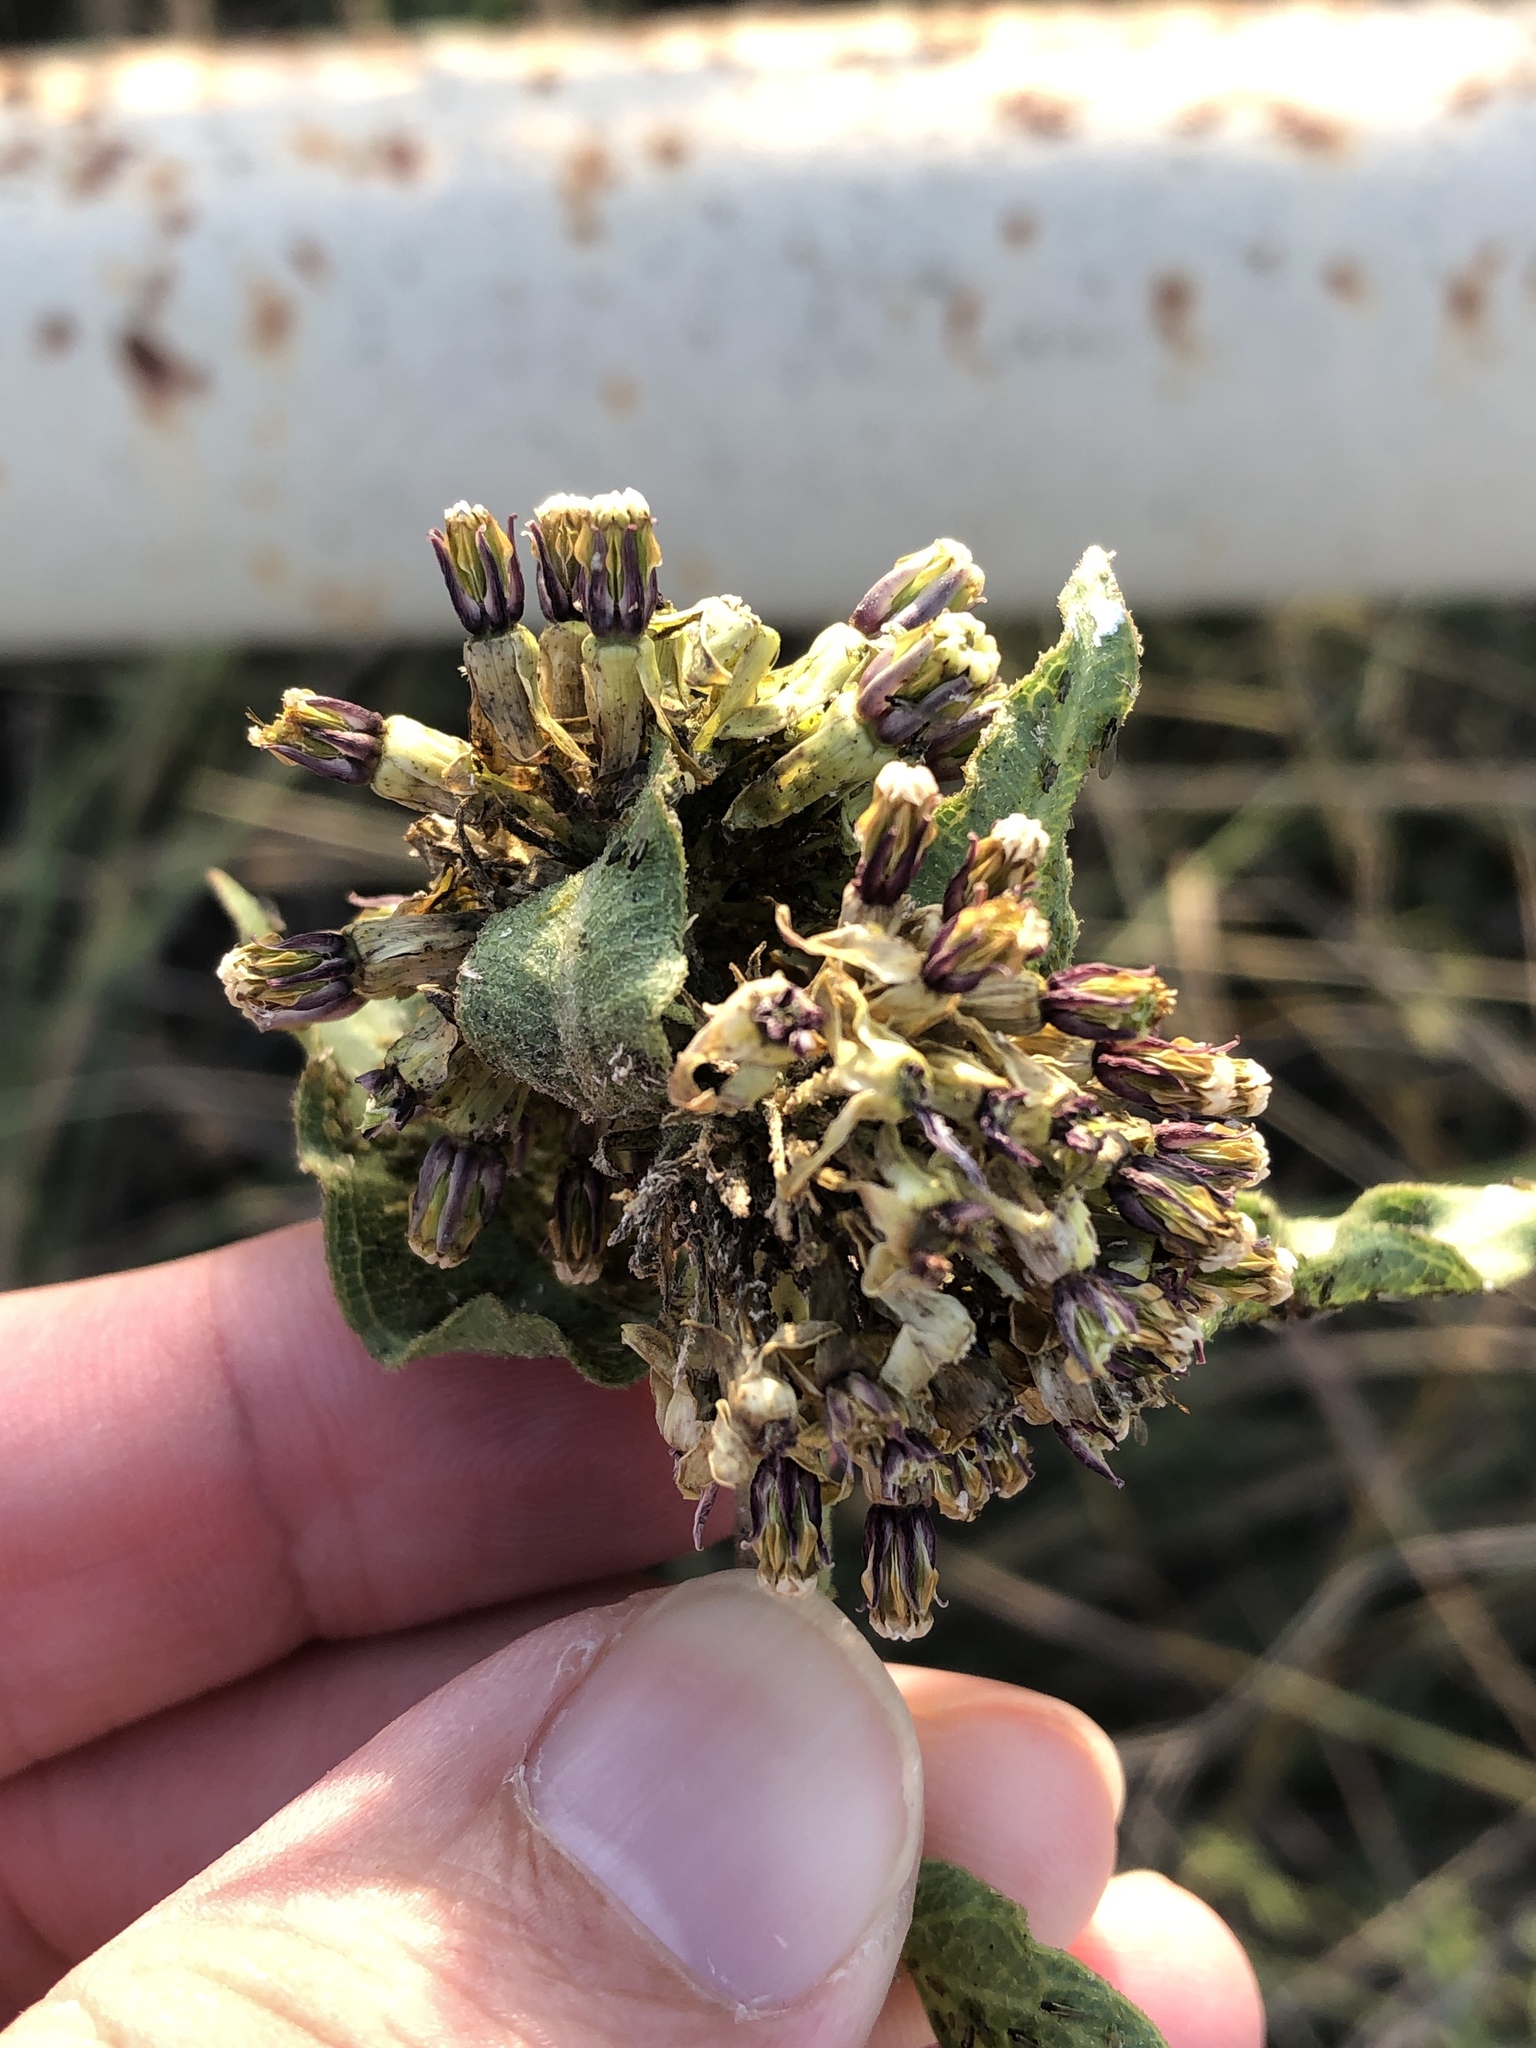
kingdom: Plantae
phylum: Tracheophyta
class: Magnoliopsida
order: Gentianales
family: Apocynaceae
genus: Asclepias
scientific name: Asclepias viridiflora
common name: Green comet milkweed
